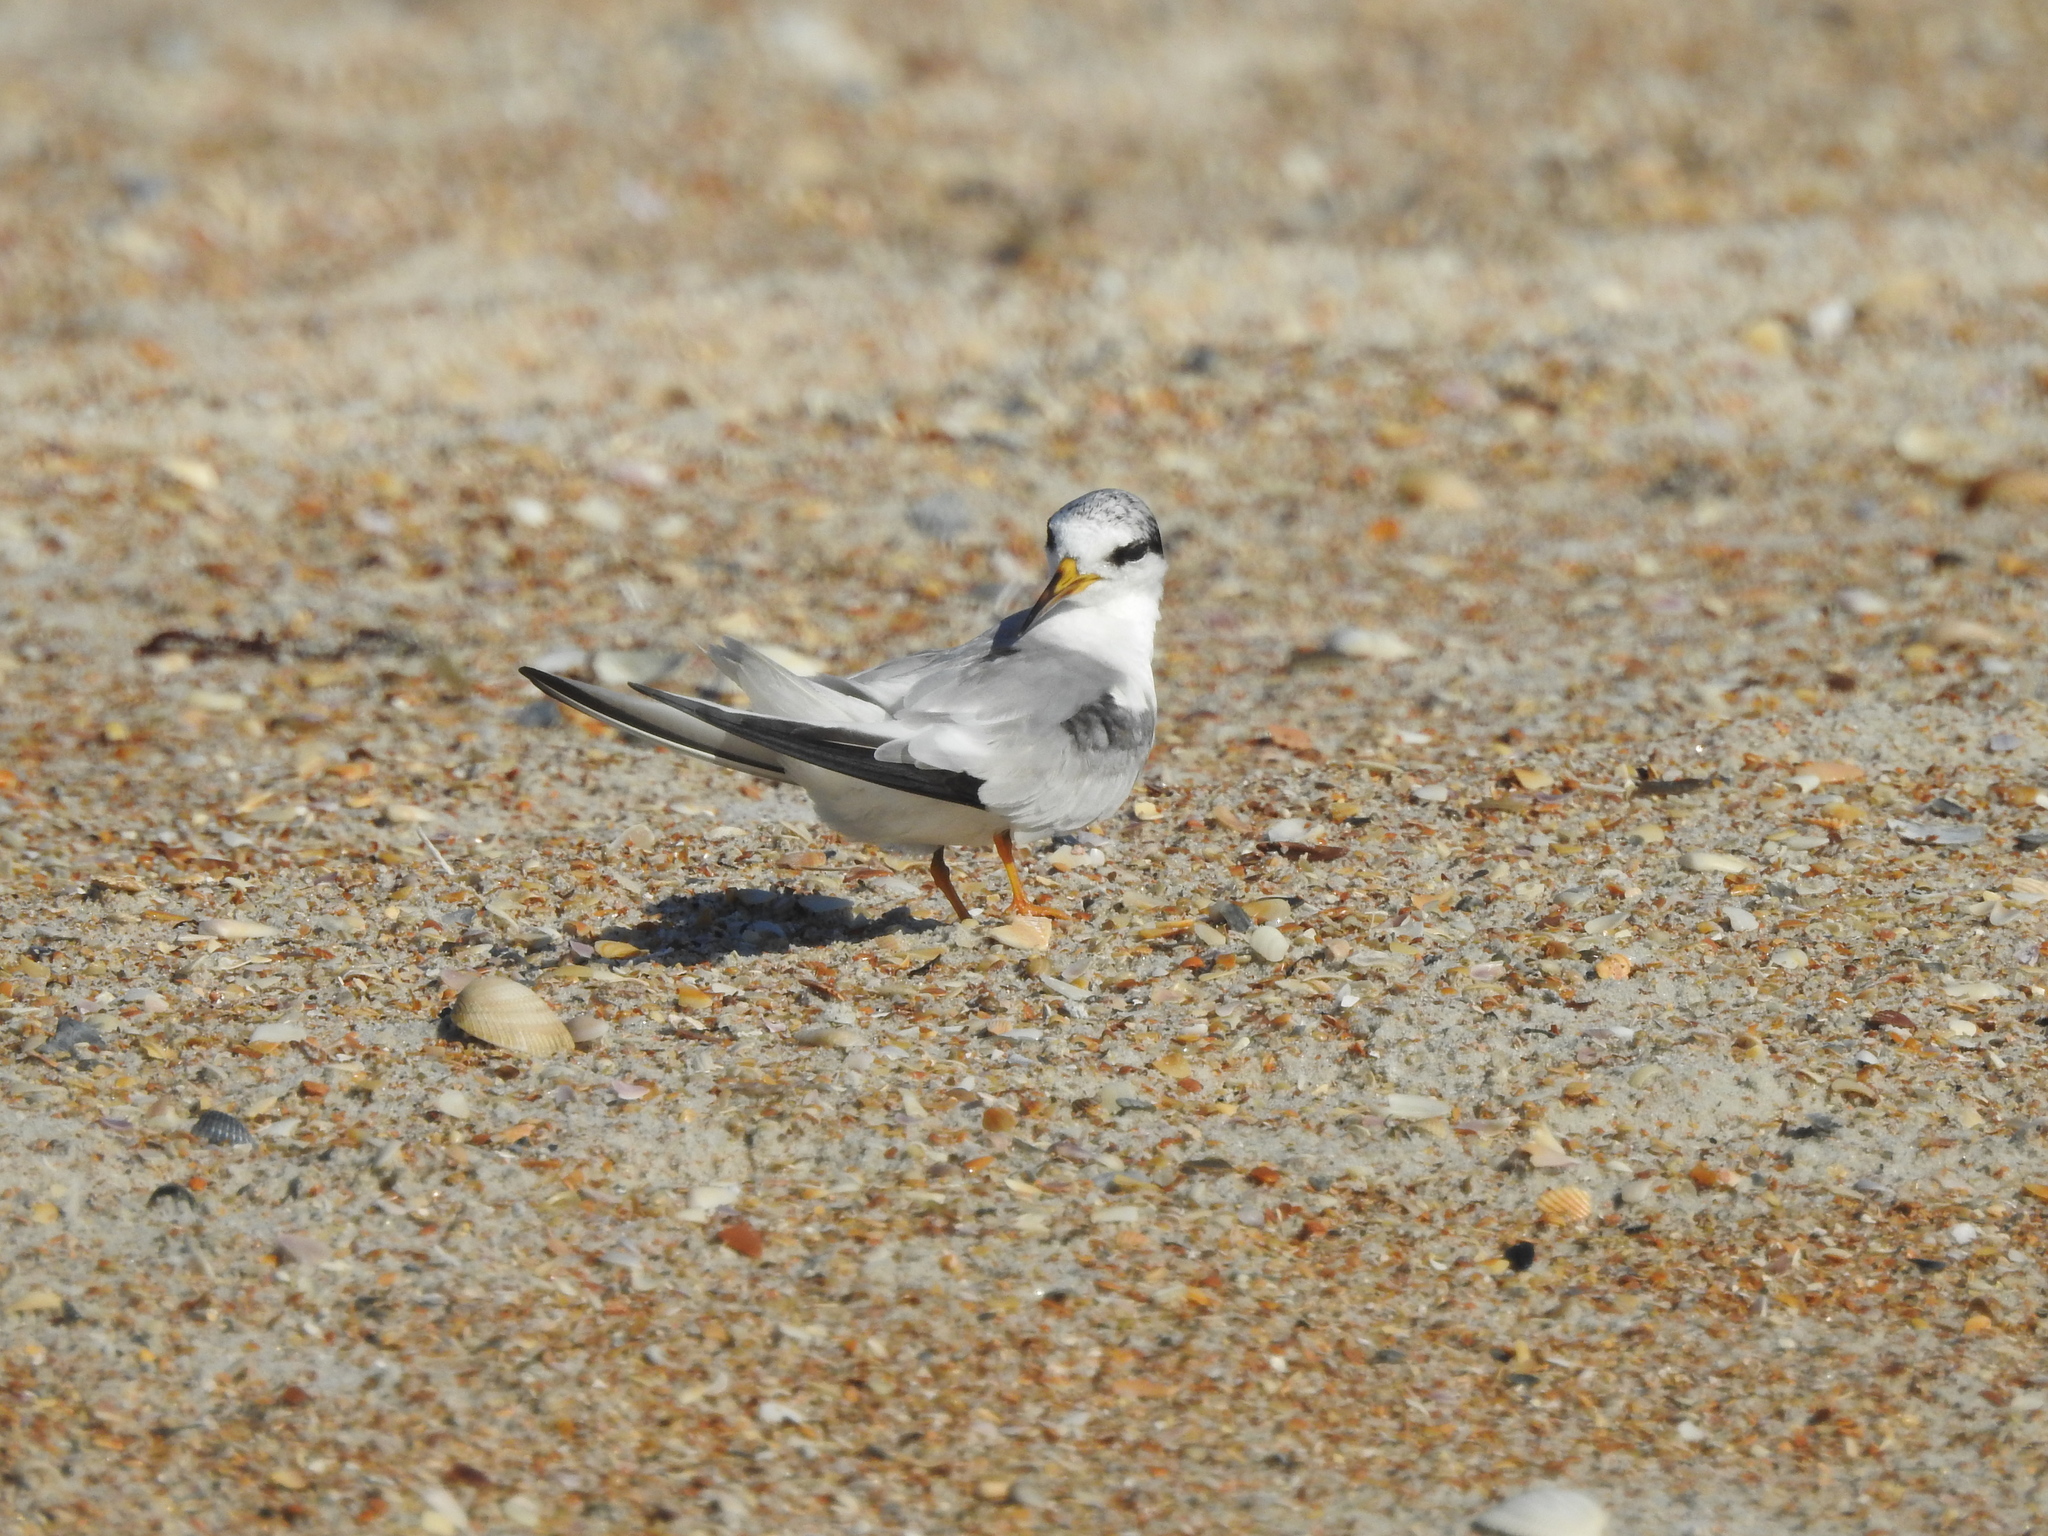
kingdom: Animalia
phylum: Chordata
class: Aves
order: Charadriiformes
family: Laridae
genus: Sternula
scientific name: Sternula antillarum
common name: Least tern
